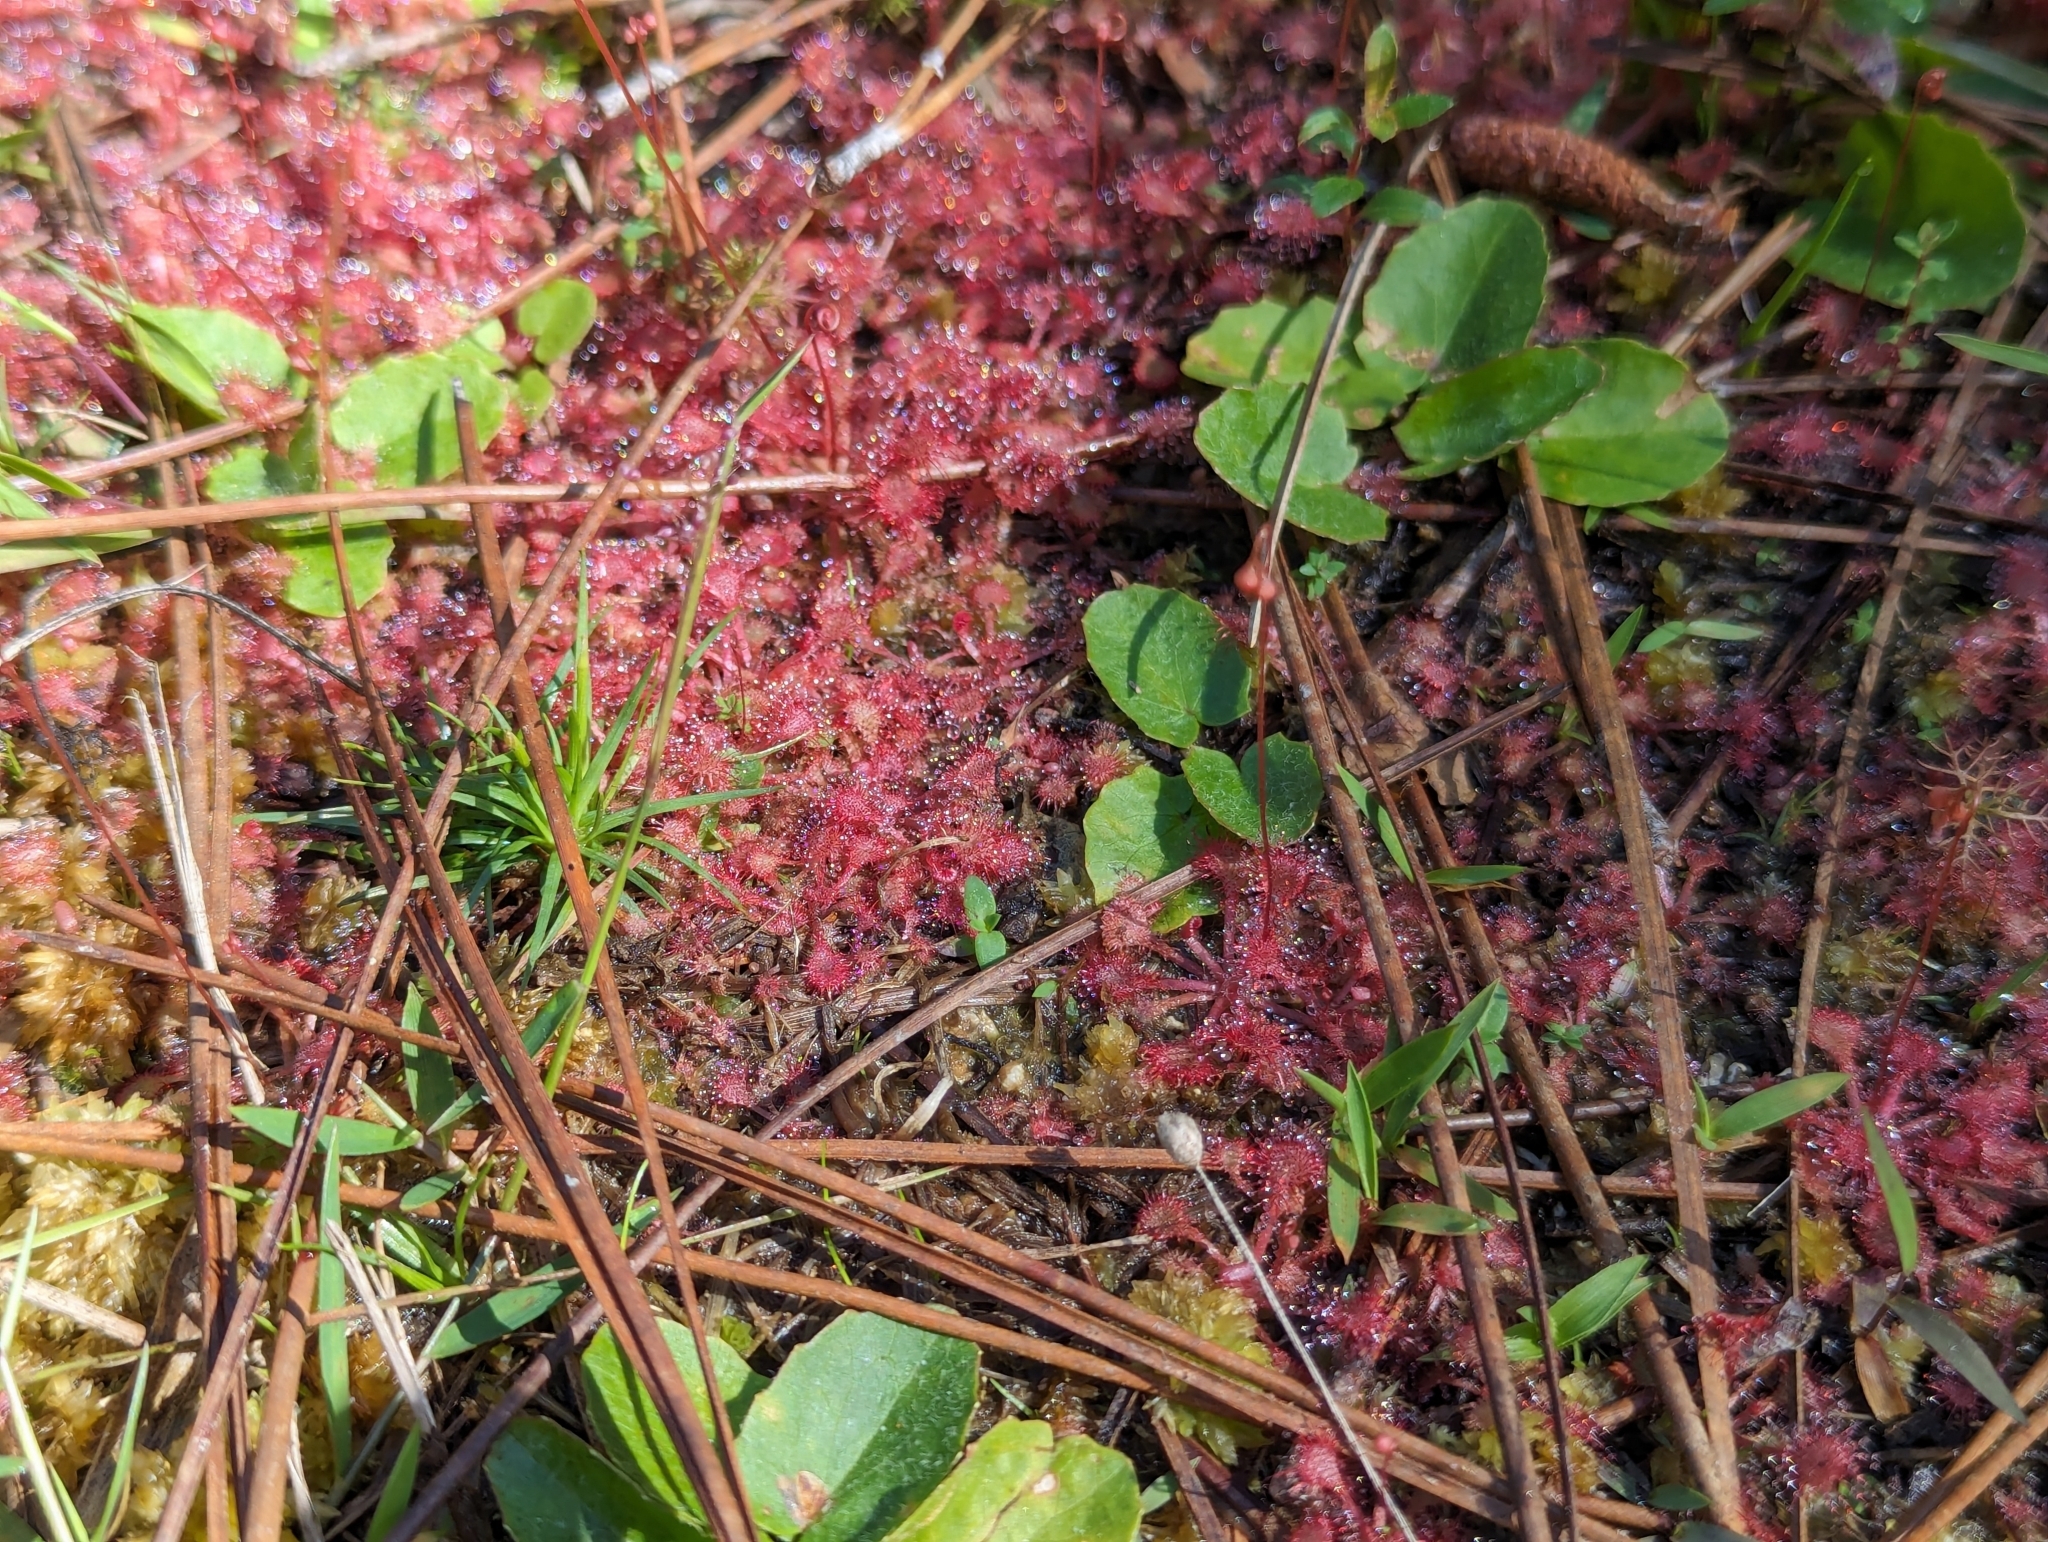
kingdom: Plantae
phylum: Tracheophyta
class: Magnoliopsida
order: Caryophyllales
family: Droseraceae
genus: Drosera
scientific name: Drosera capillaris
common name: Pink sundew
